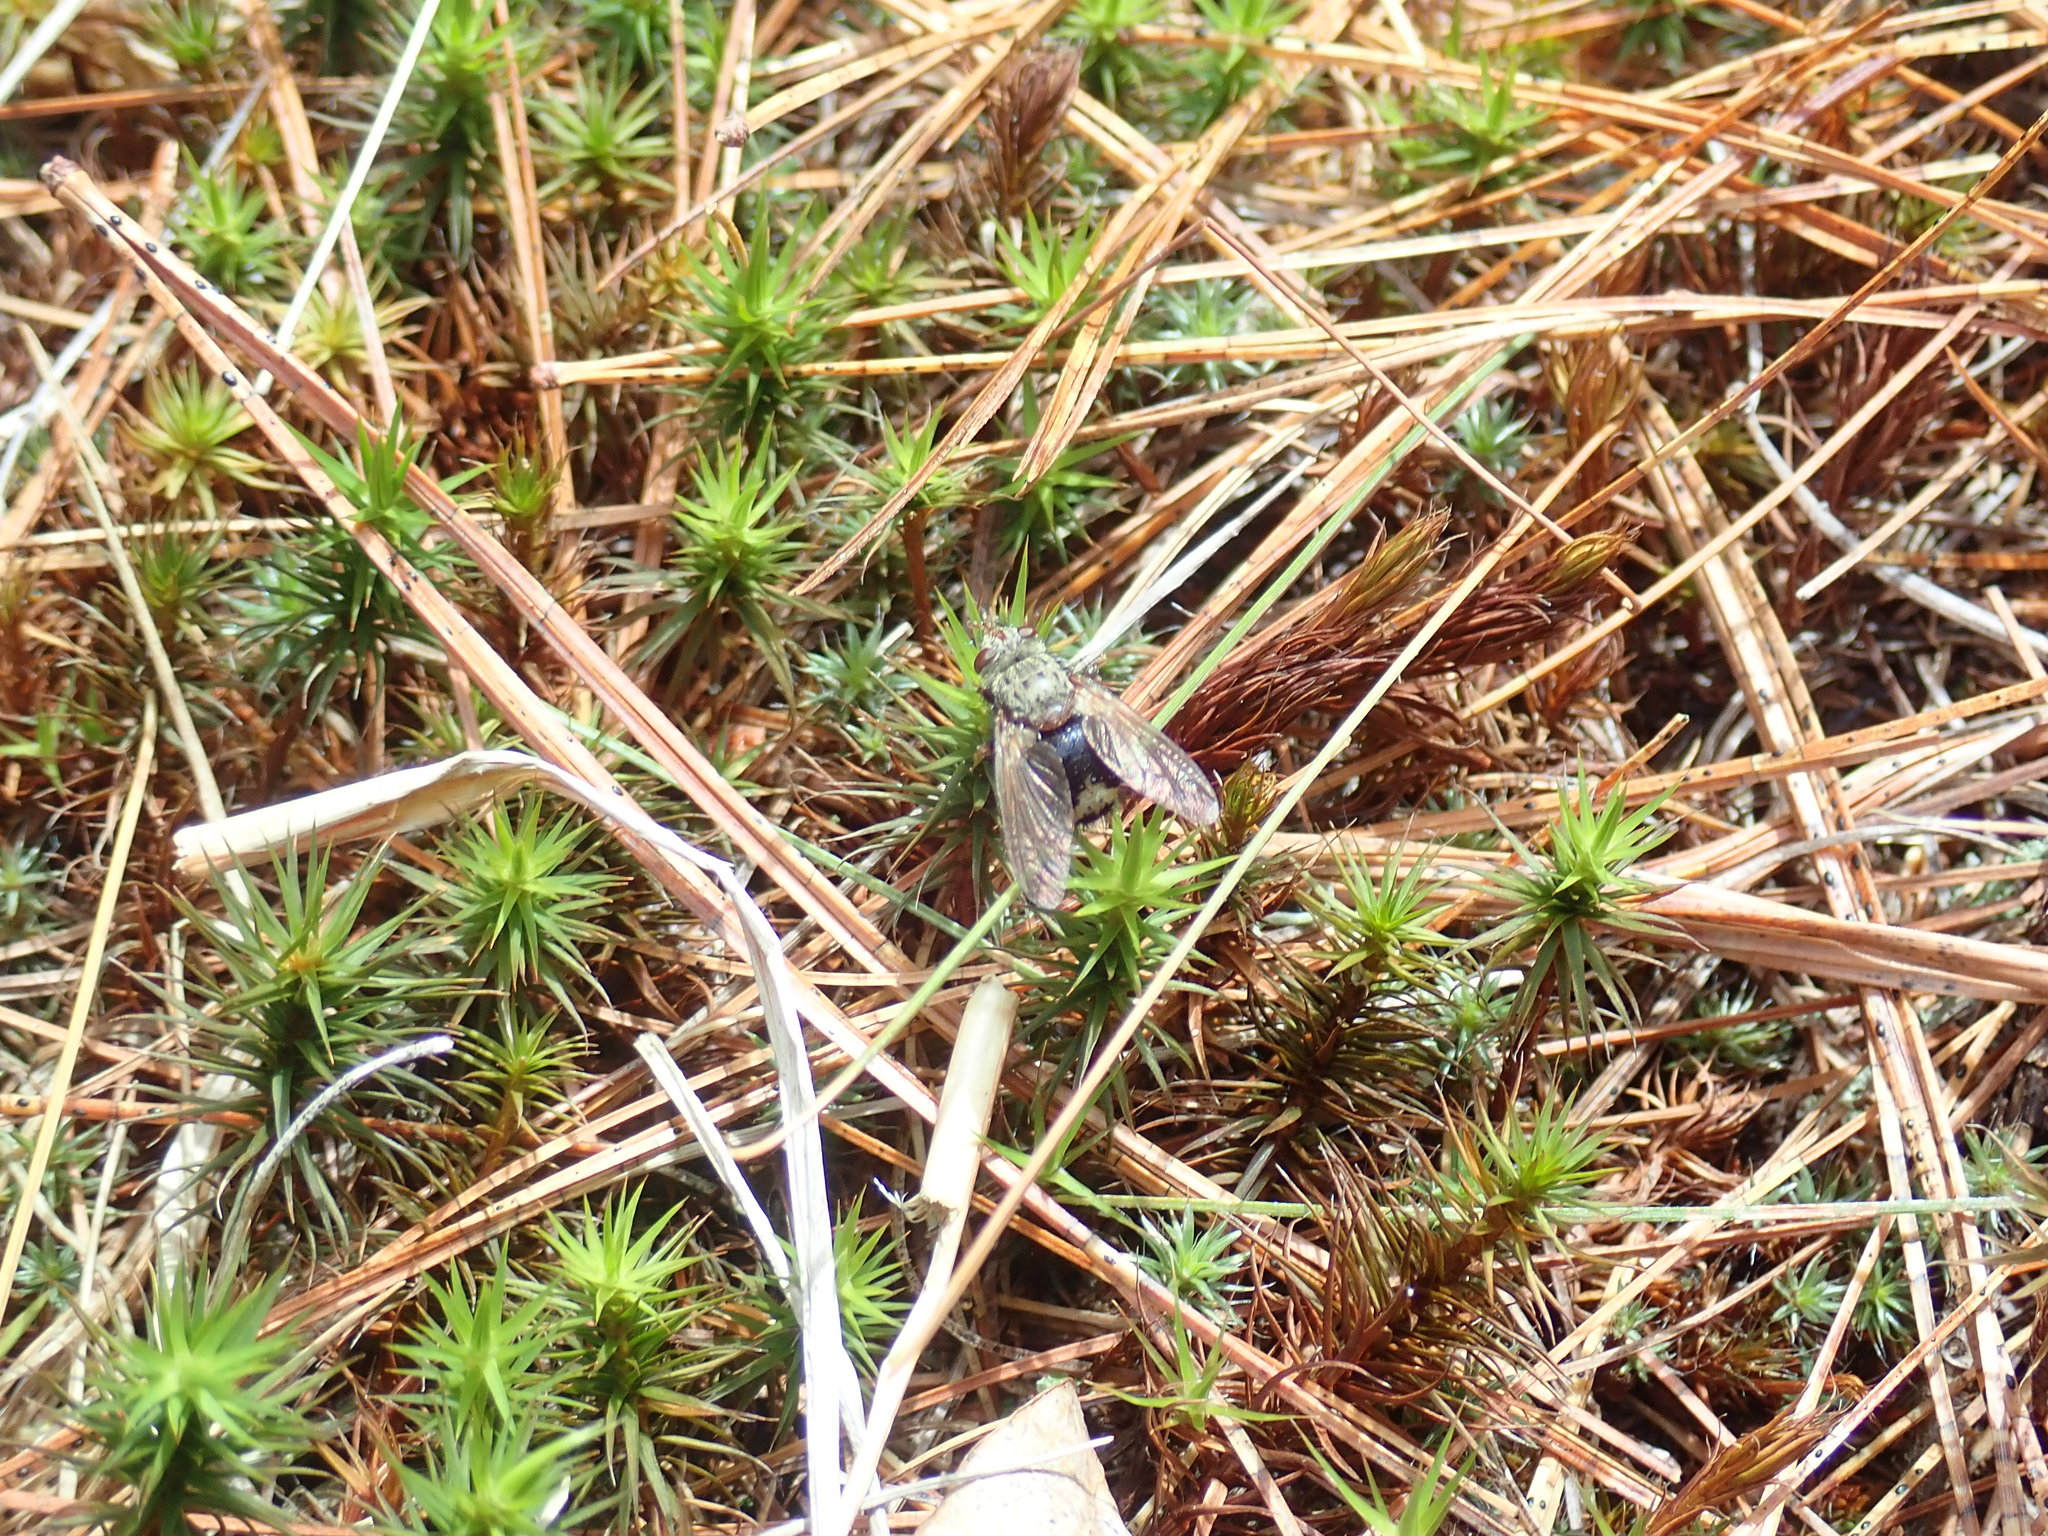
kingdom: Animalia
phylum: Arthropoda
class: Insecta
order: Diptera
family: Tachinidae
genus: Epalpus
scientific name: Epalpus signifer
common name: Early tachinid fly
